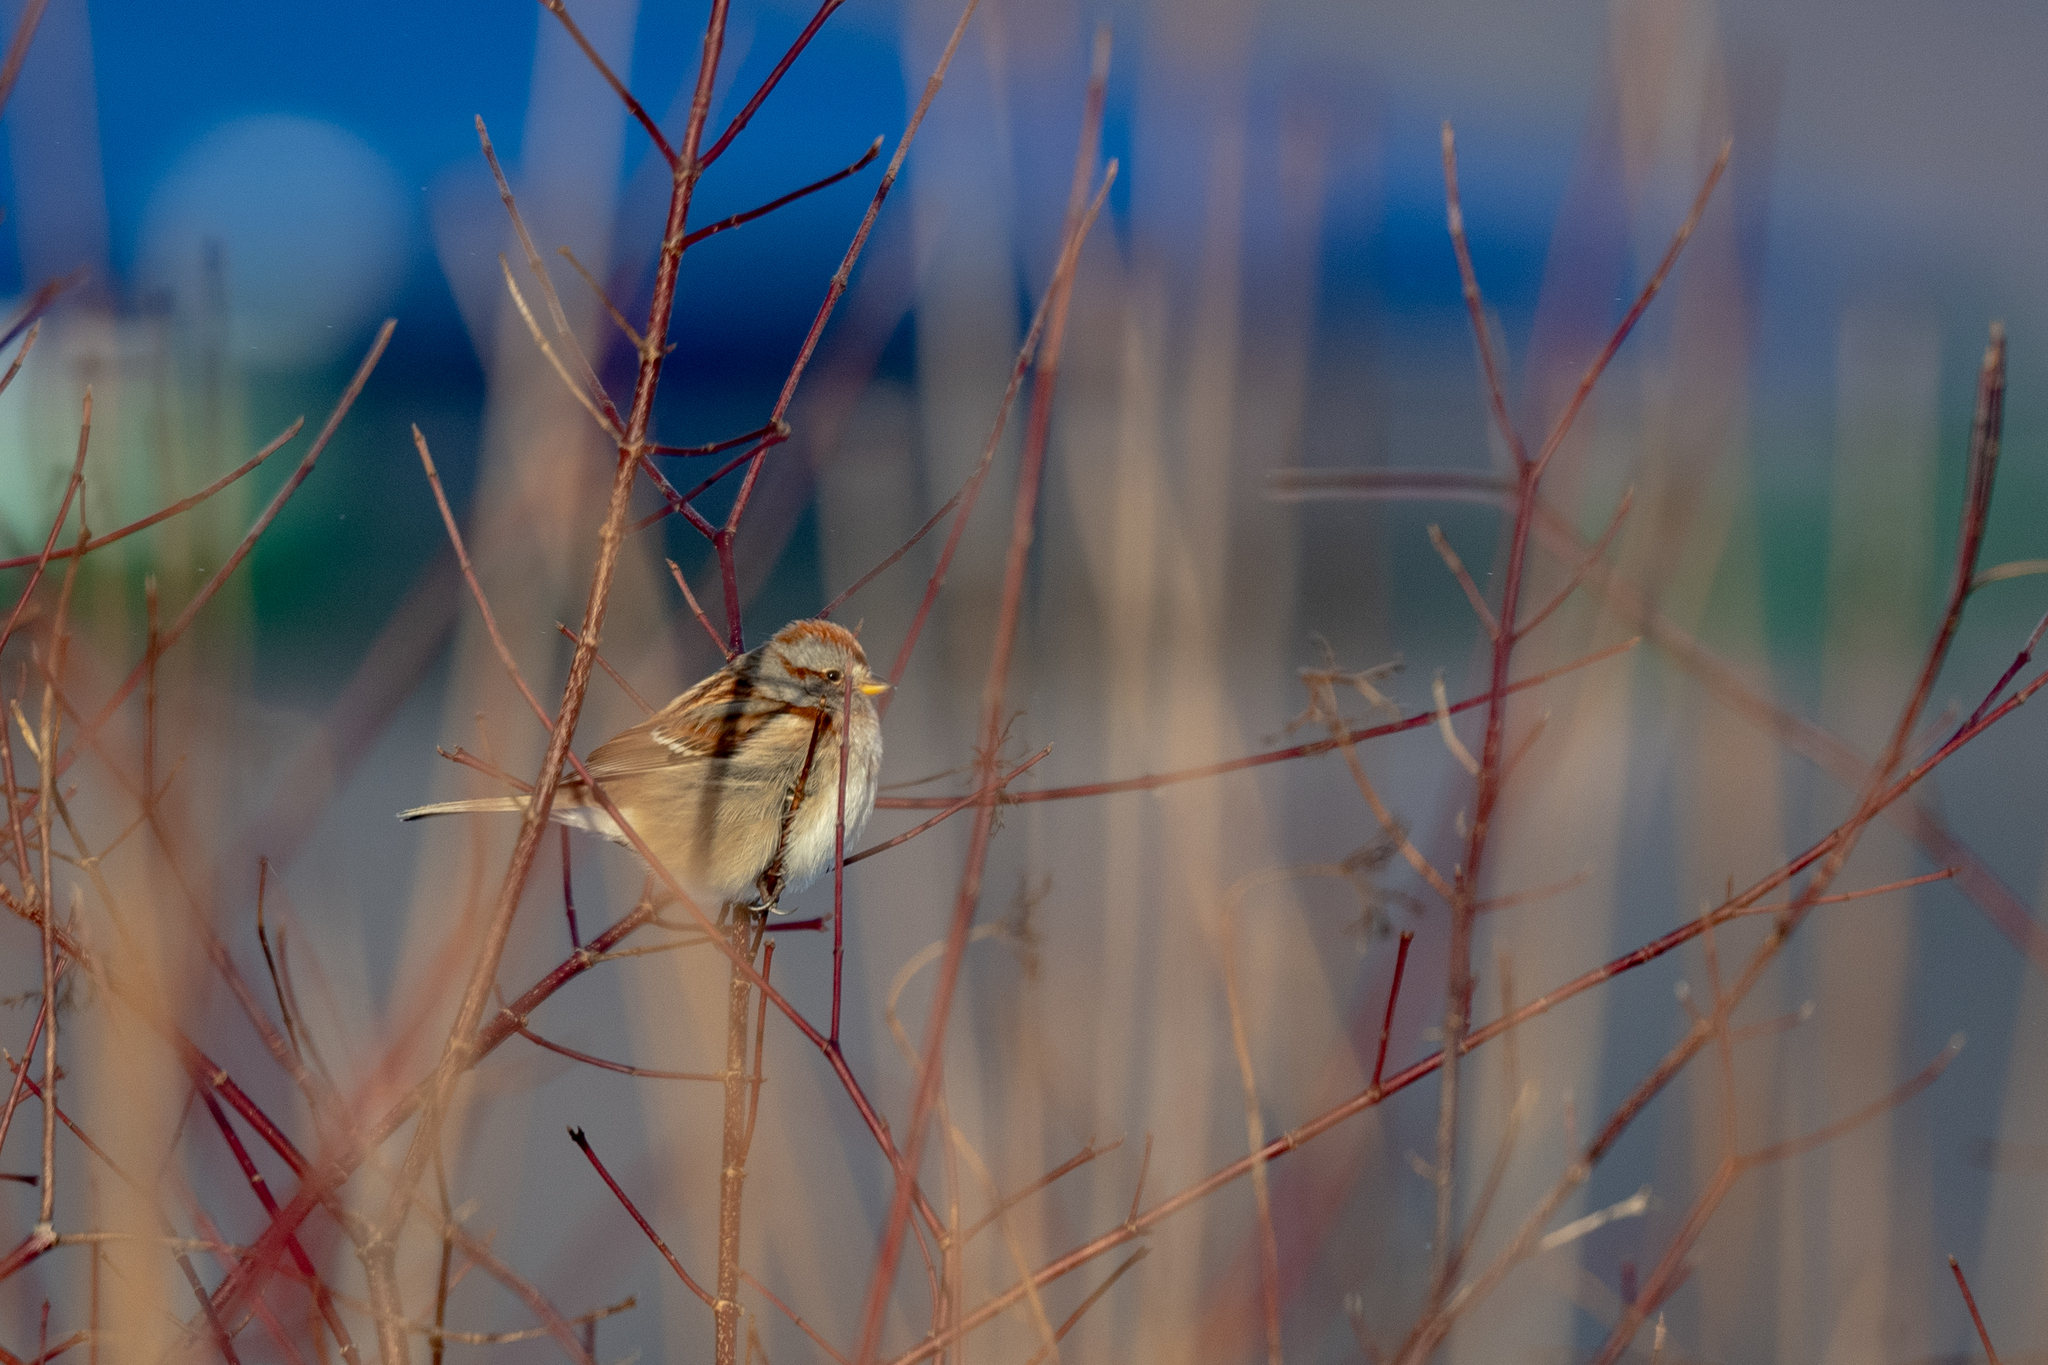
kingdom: Animalia
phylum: Chordata
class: Aves
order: Passeriformes
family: Passerellidae
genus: Spizelloides
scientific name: Spizelloides arborea
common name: American tree sparrow
